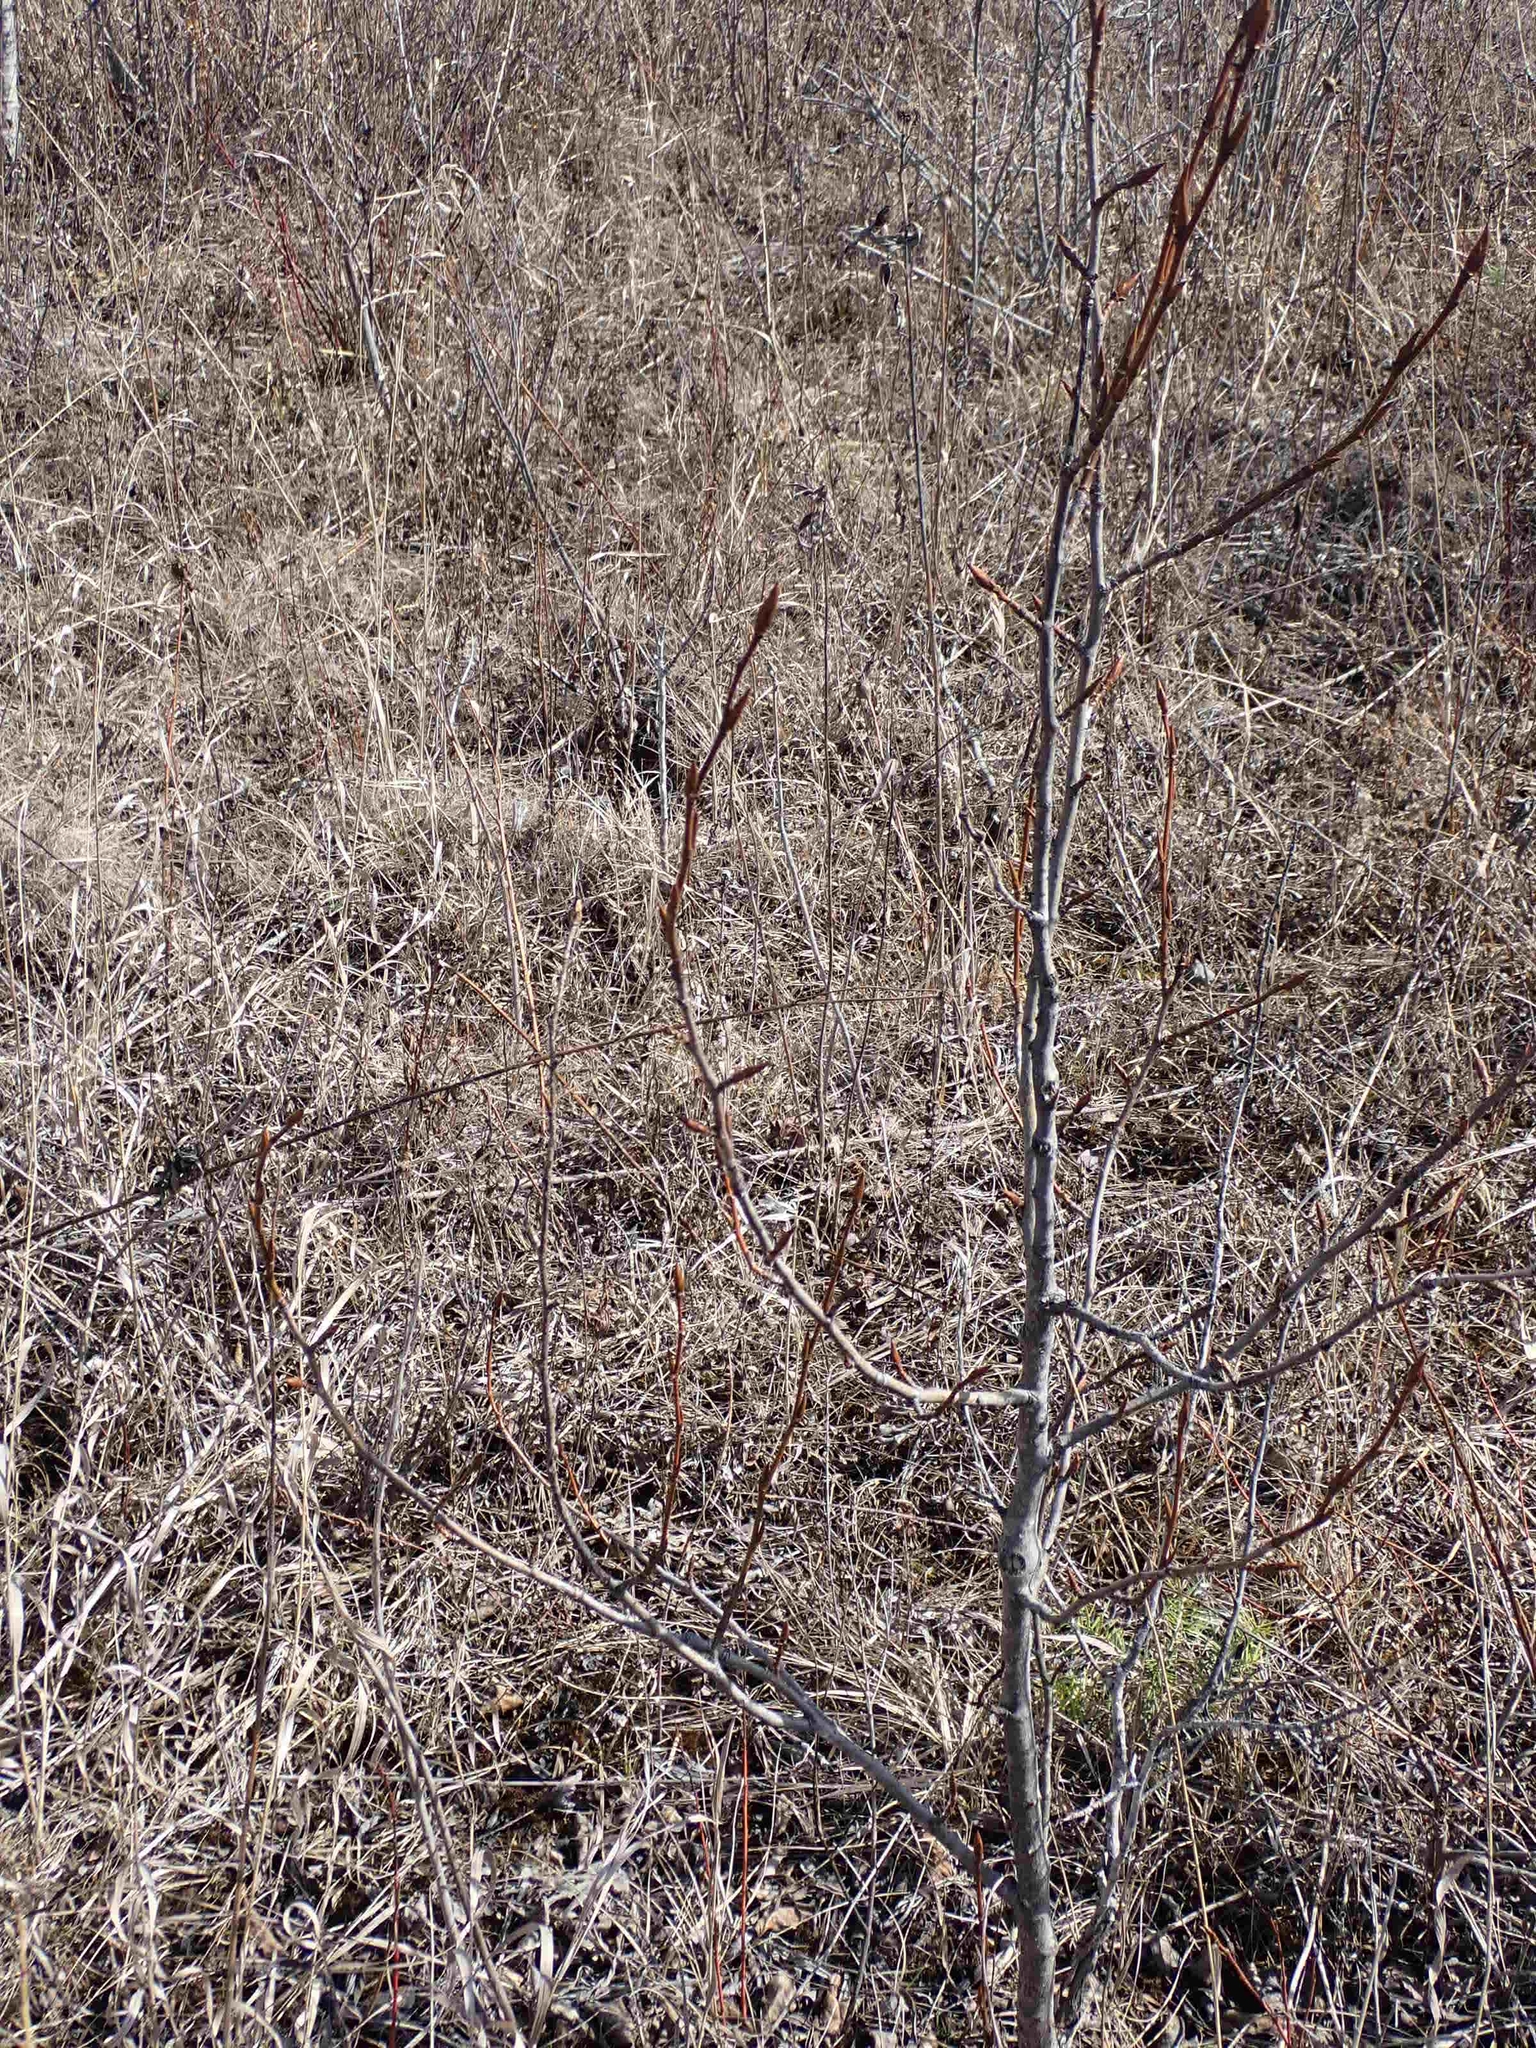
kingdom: Plantae
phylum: Tracheophyta
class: Magnoliopsida
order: Malpighiales
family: Salicaceae
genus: Populus
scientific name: Populus balsamifera
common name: Balsam poplar
